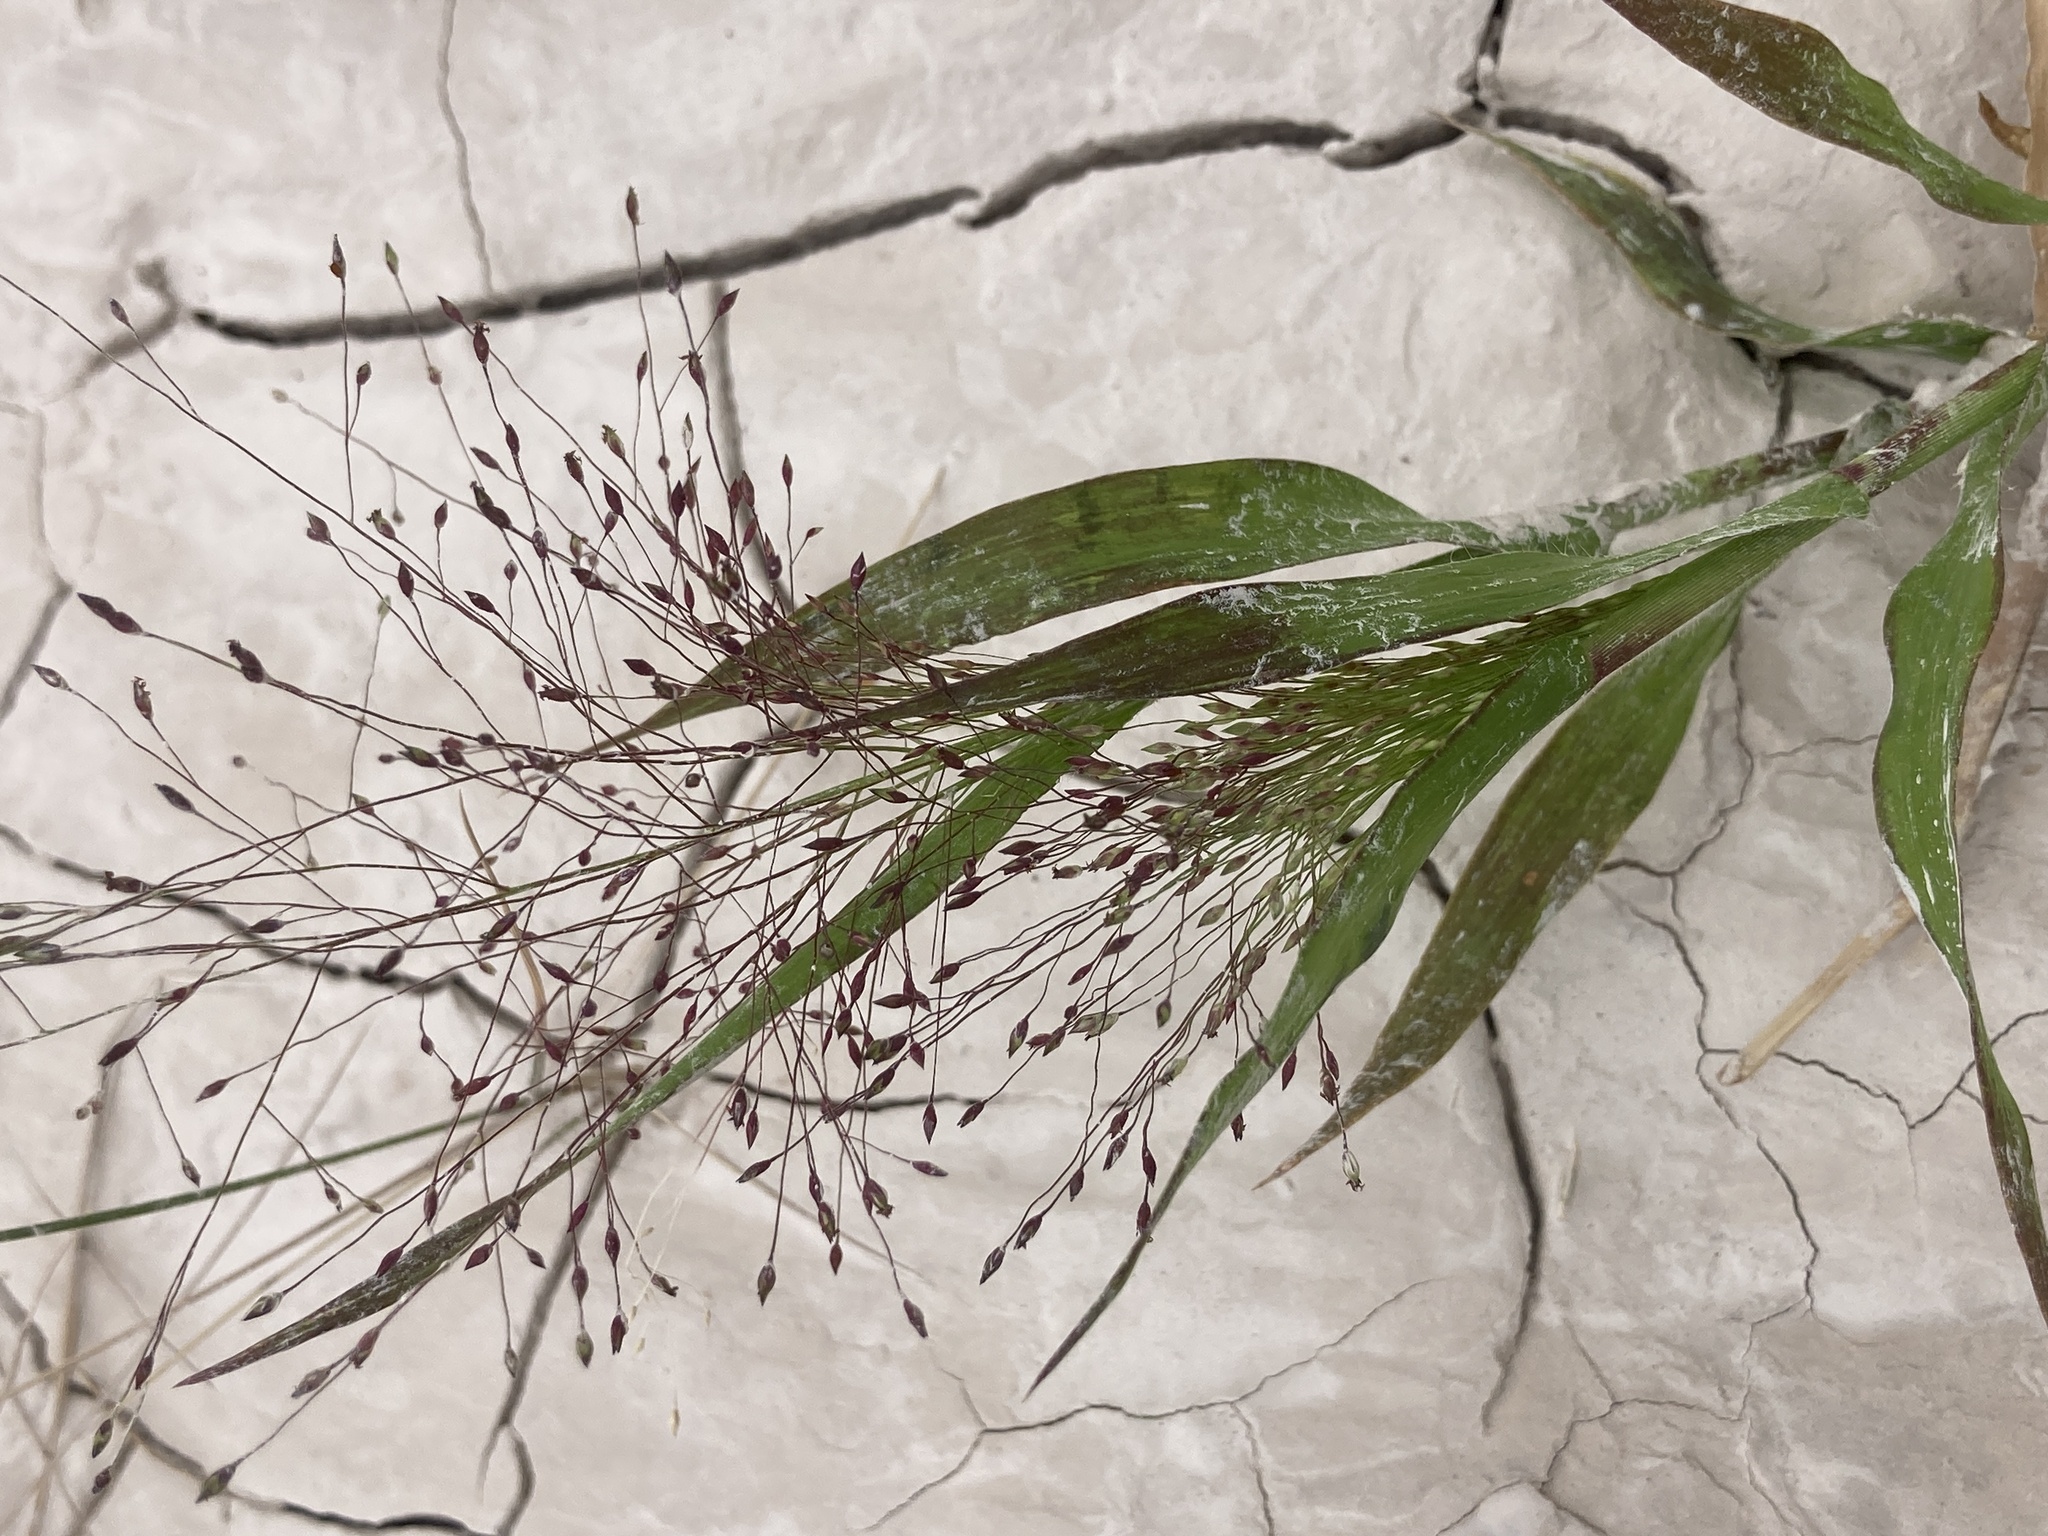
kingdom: Plantae
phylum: Tracheophyta
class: Liliopsida
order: Poales
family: Poaceae
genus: Panicum
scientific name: Panicum capillare
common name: Witch-grass
